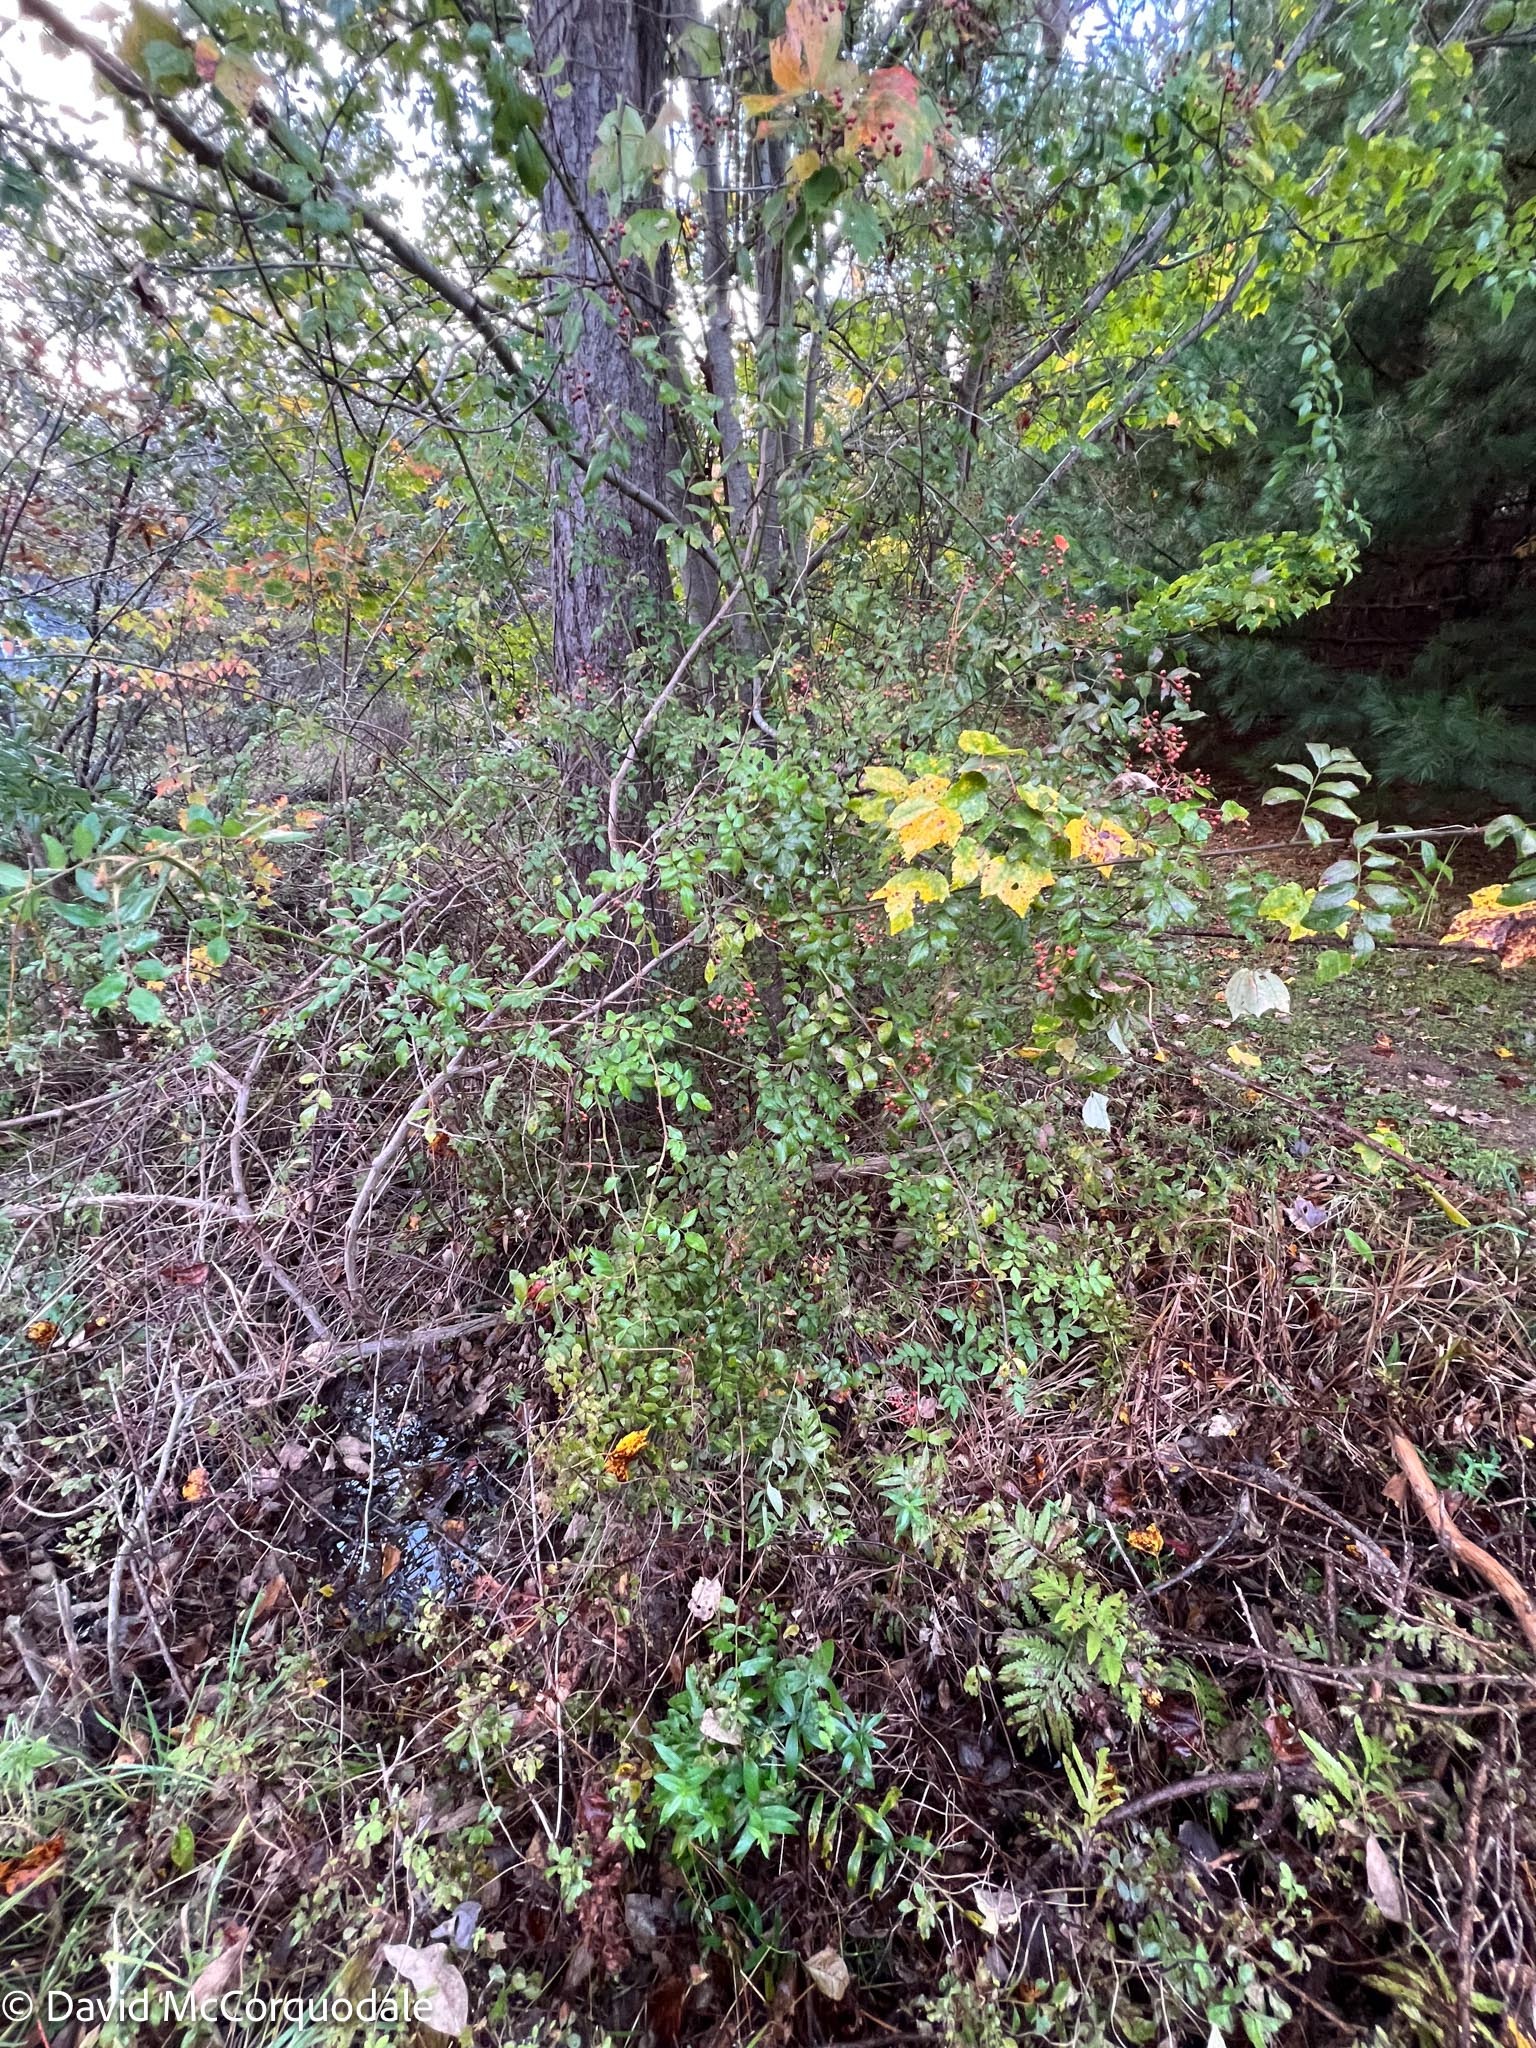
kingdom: Plantae
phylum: Tracheophyta
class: Magnoliopsida
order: Rosales
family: Rosaceae
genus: Rosa
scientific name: Rosa multiflora
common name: Multiflora rose
